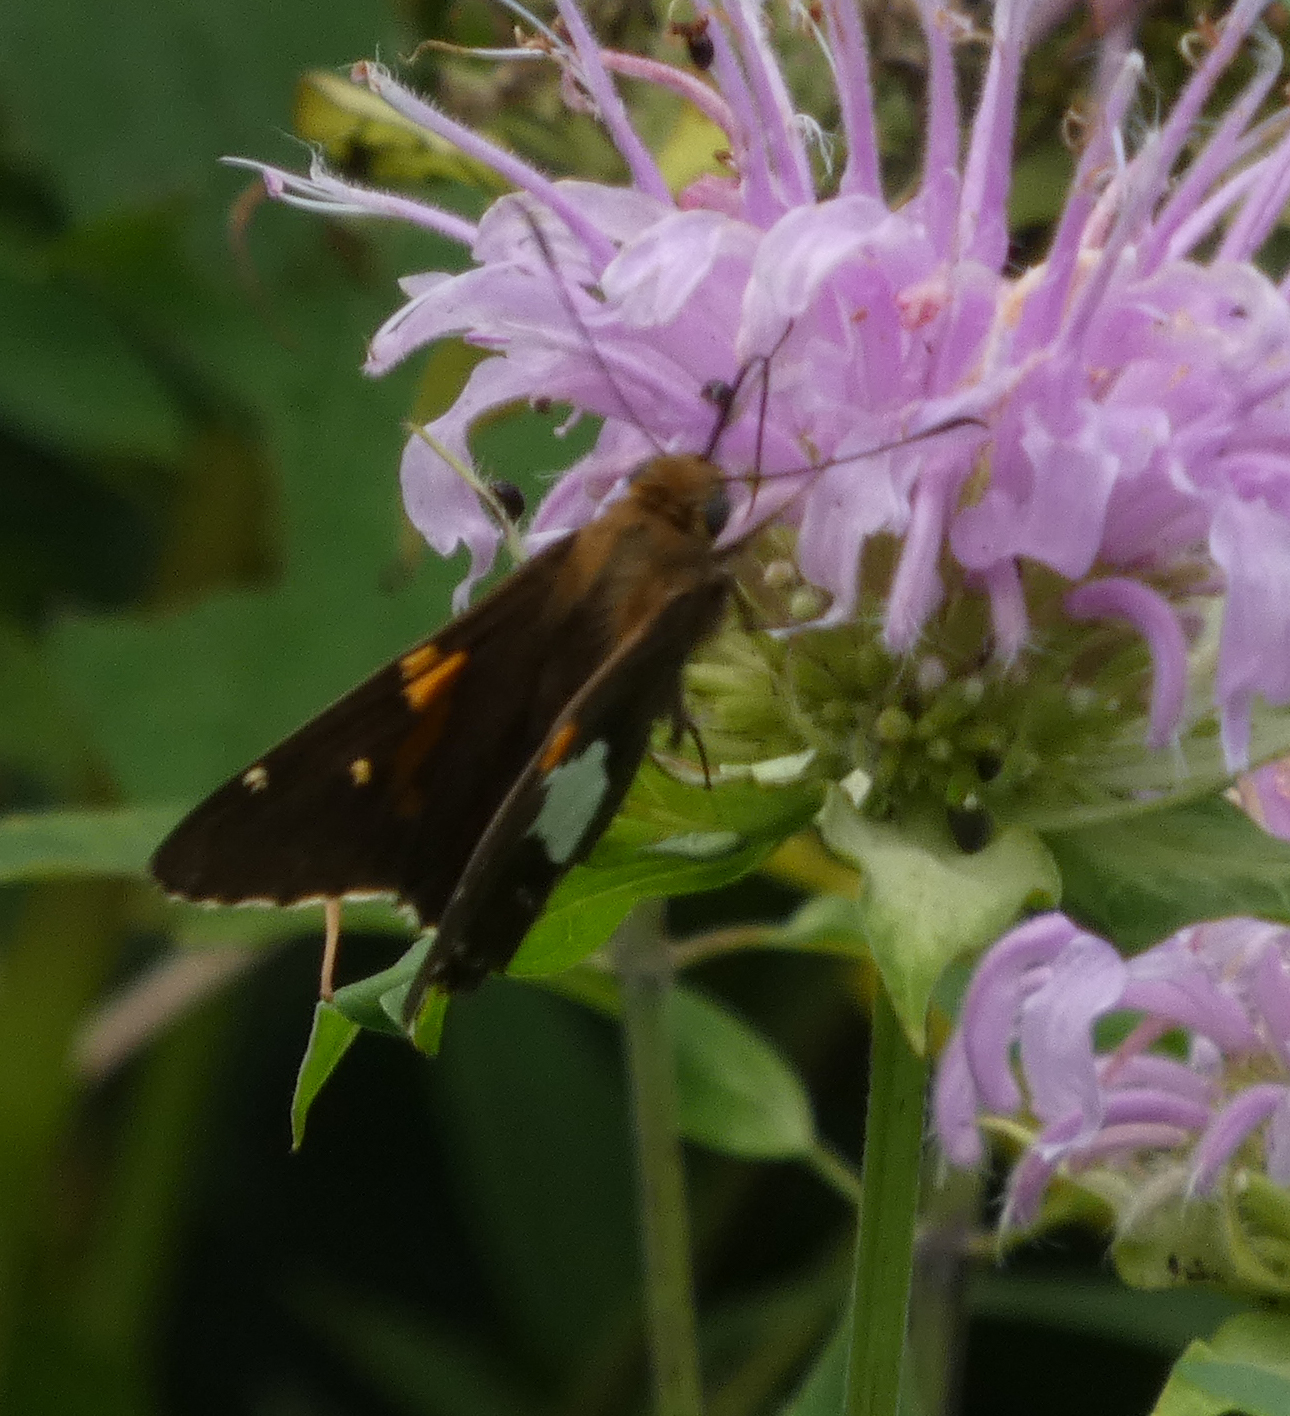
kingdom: Animalia
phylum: Arthropoda
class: Insecta
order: Lepidoptera
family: Hesperiidae
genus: Epargyreus
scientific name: Epargyreus clarus
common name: Silver-spotted skipper
